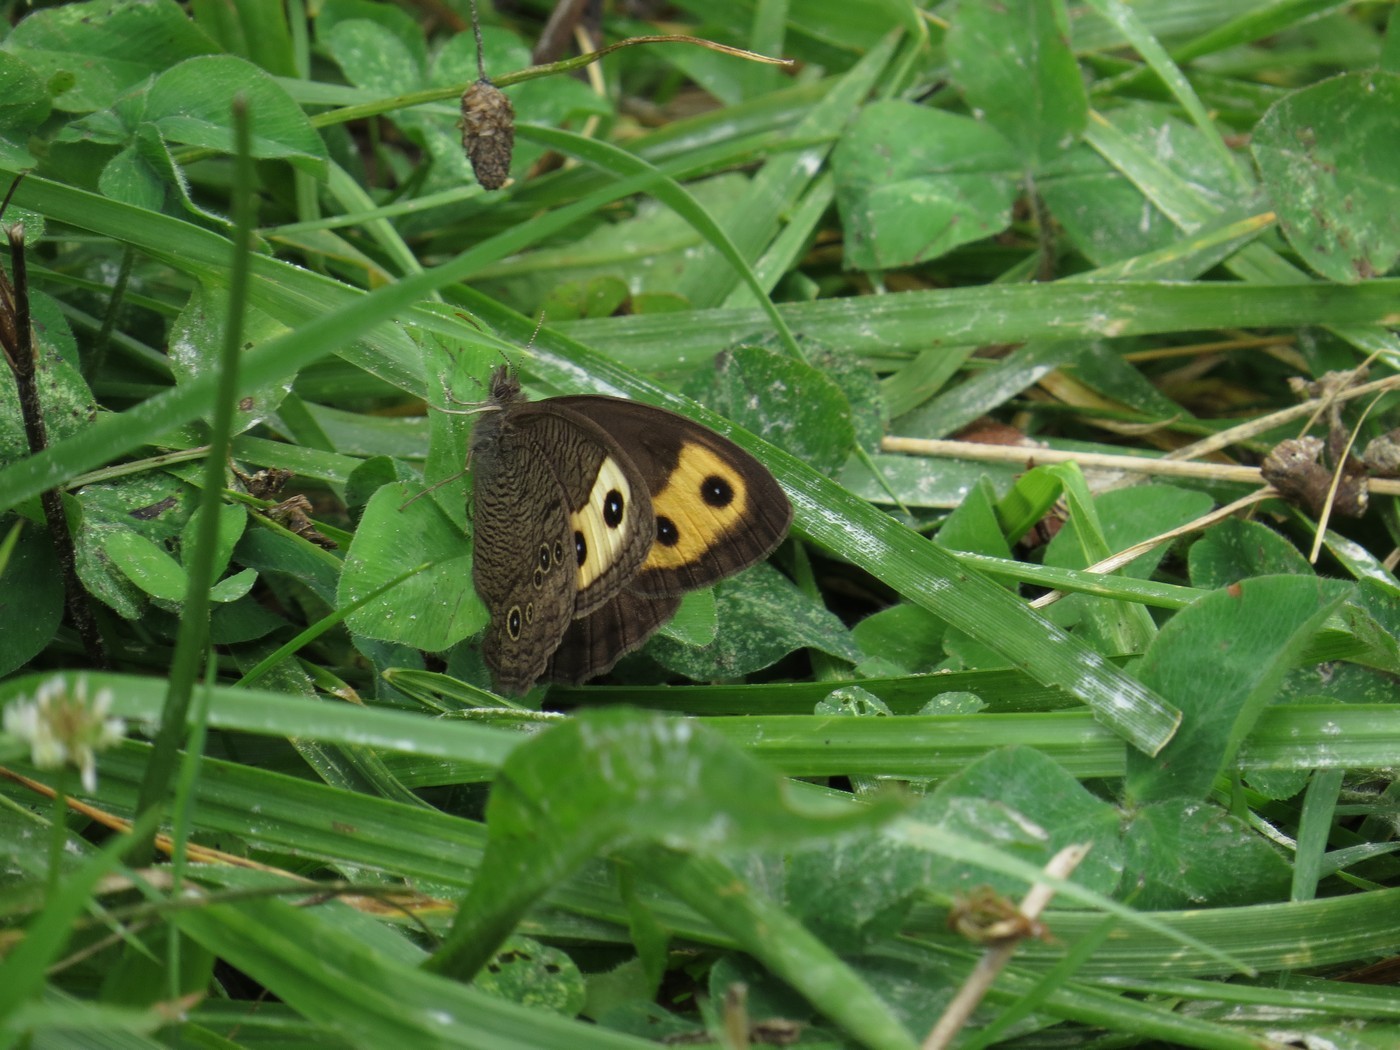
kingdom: Animalia
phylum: Arthropoda
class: Insecta
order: Lepidoptera
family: Nymphalidae
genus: Cercyonis
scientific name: Cercyonis pegala
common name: Common wood-nymph
